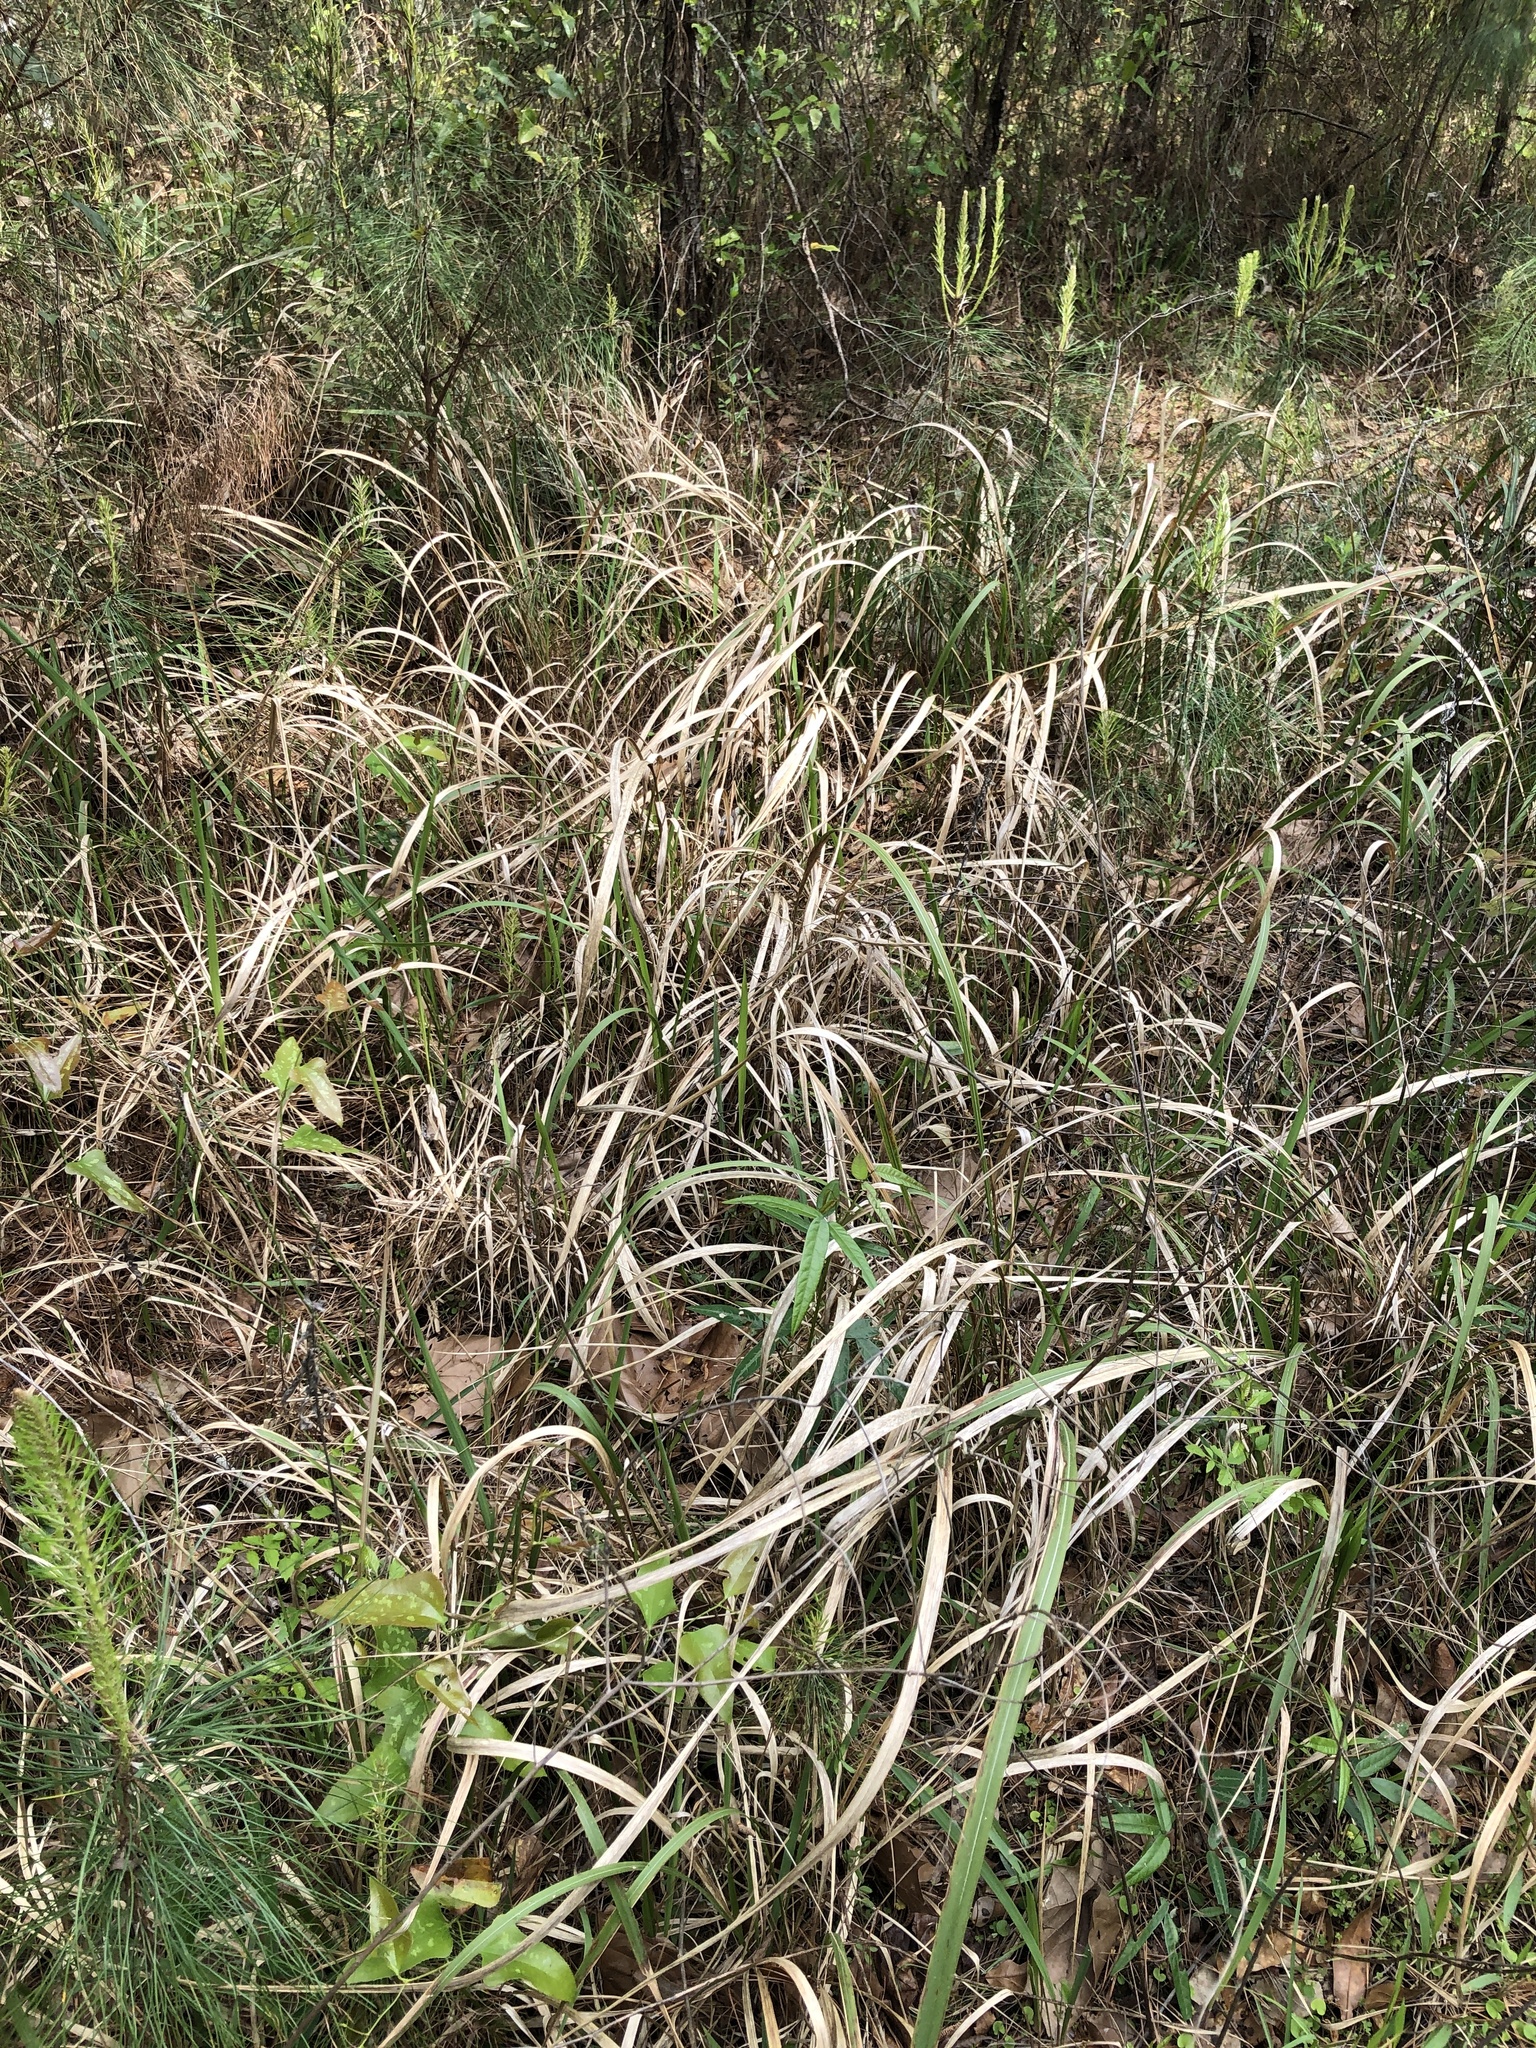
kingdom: Plantae
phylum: Tracheophyta
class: Liliopsida
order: Poales
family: Poaceae
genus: Imperata
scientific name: Imperata cylindrica
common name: Cogongrass
